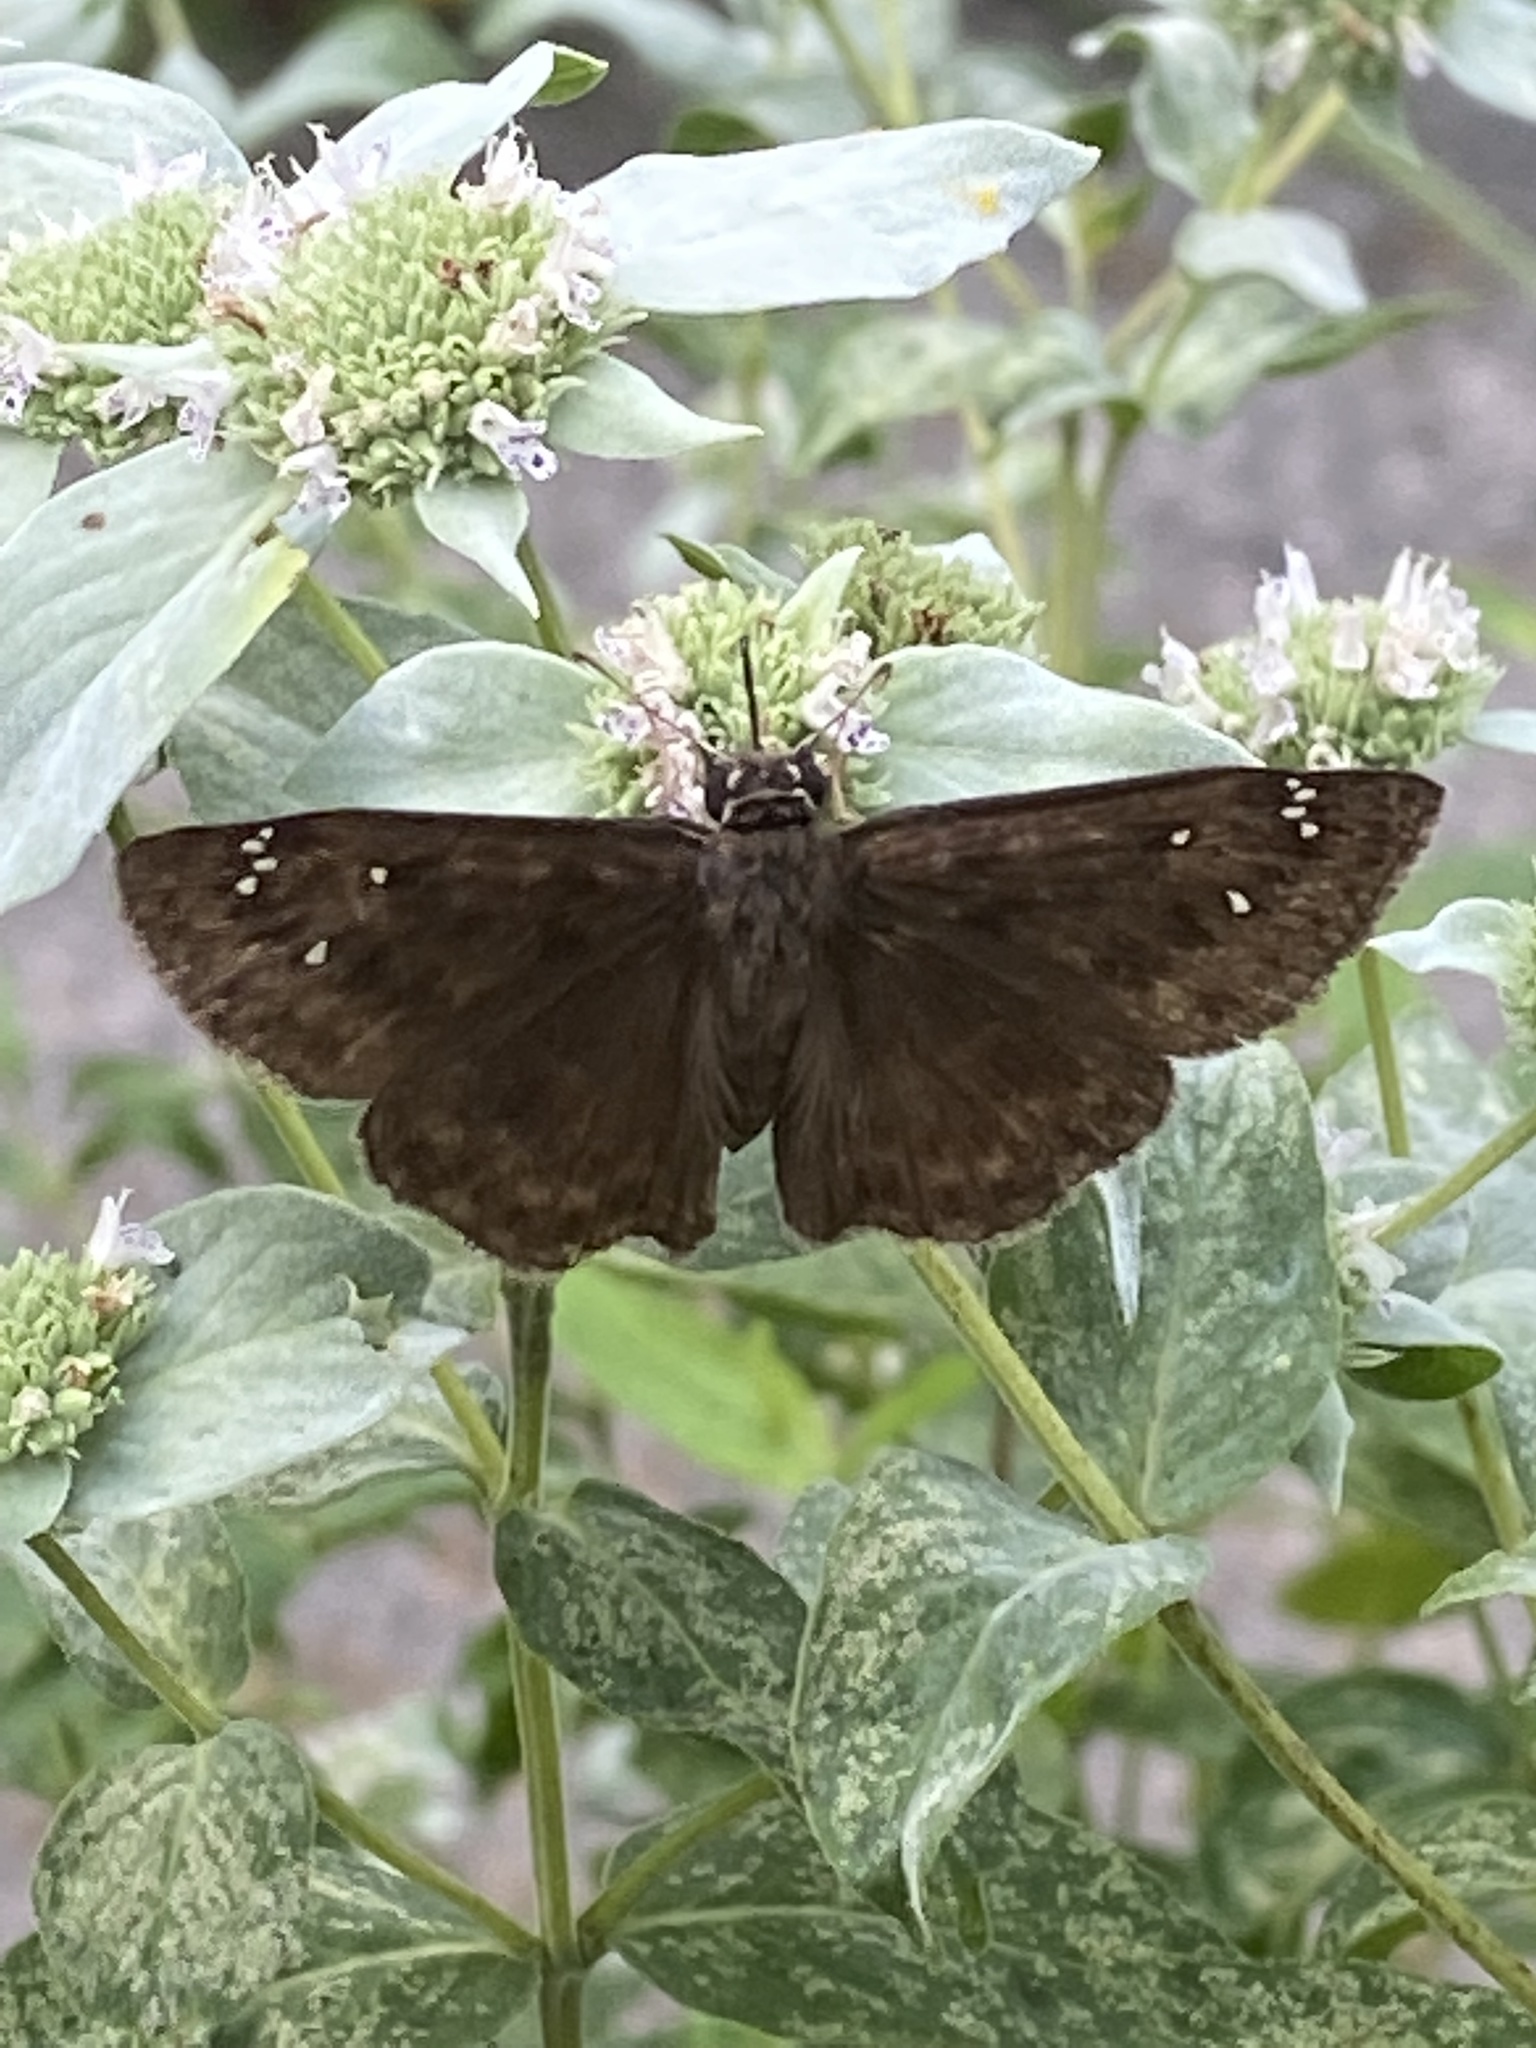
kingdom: Animalia
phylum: Arthropoda
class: Insecta
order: Lepidoptera
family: Hesperiidae
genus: Erynnis
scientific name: Erynnis horatius
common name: Horace's duskywing
